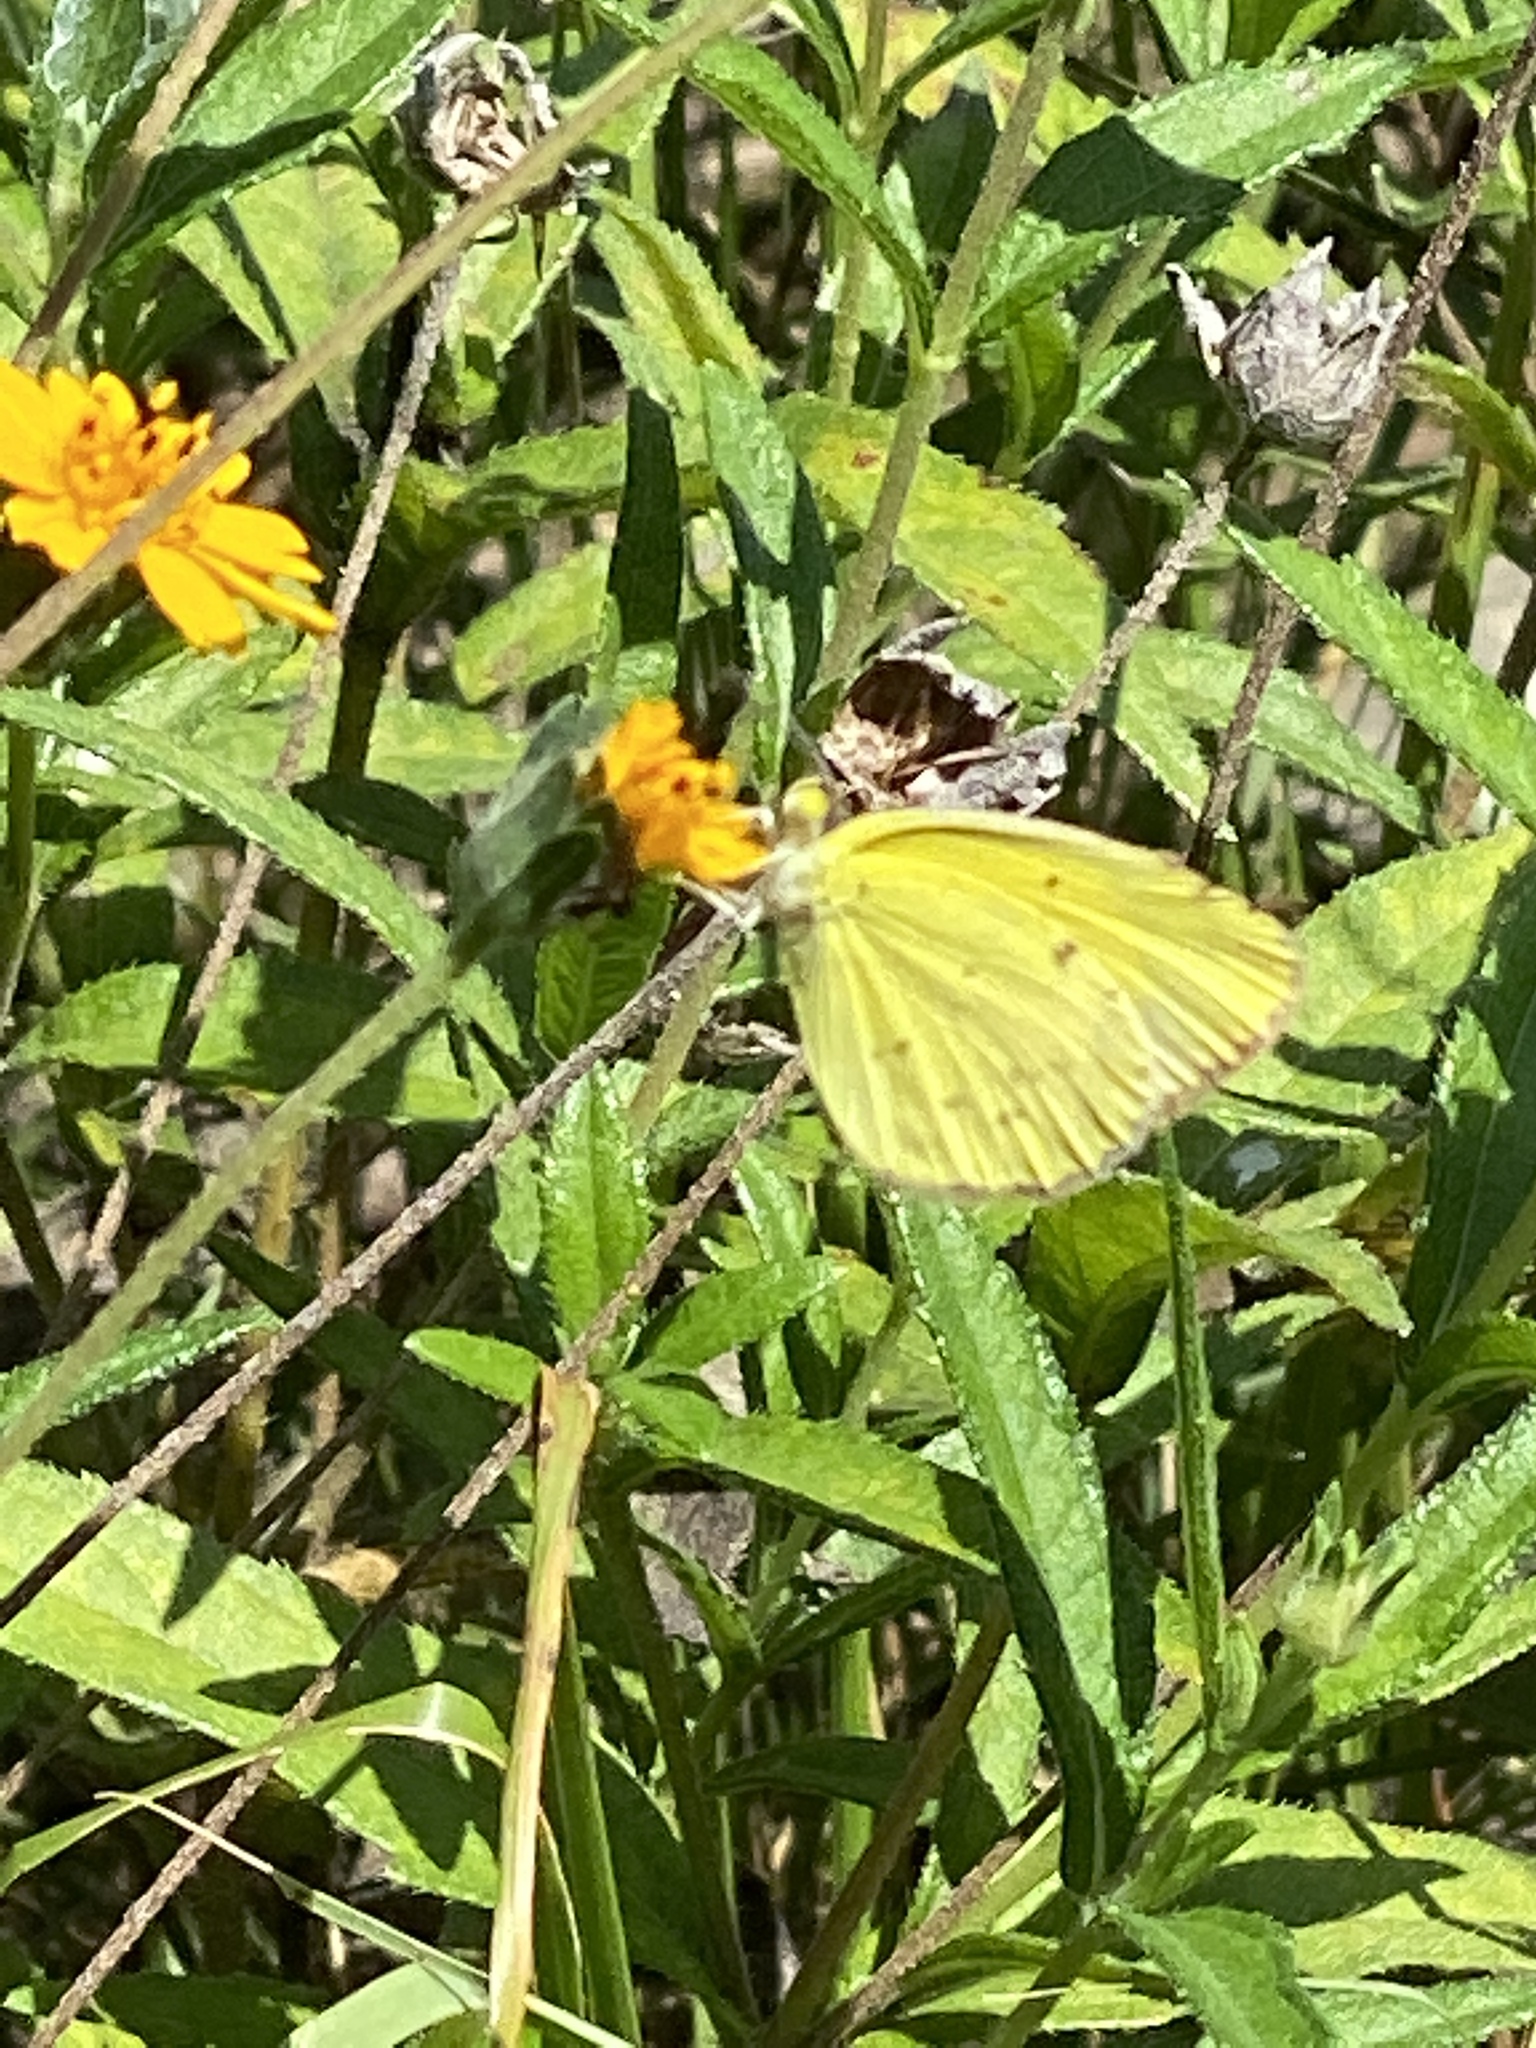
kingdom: Animalia
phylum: Arthropoda
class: Insecta
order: Lepidoptera
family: Pieridae
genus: Pyrisitia
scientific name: Pyrisitia lisa
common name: Little yellow
